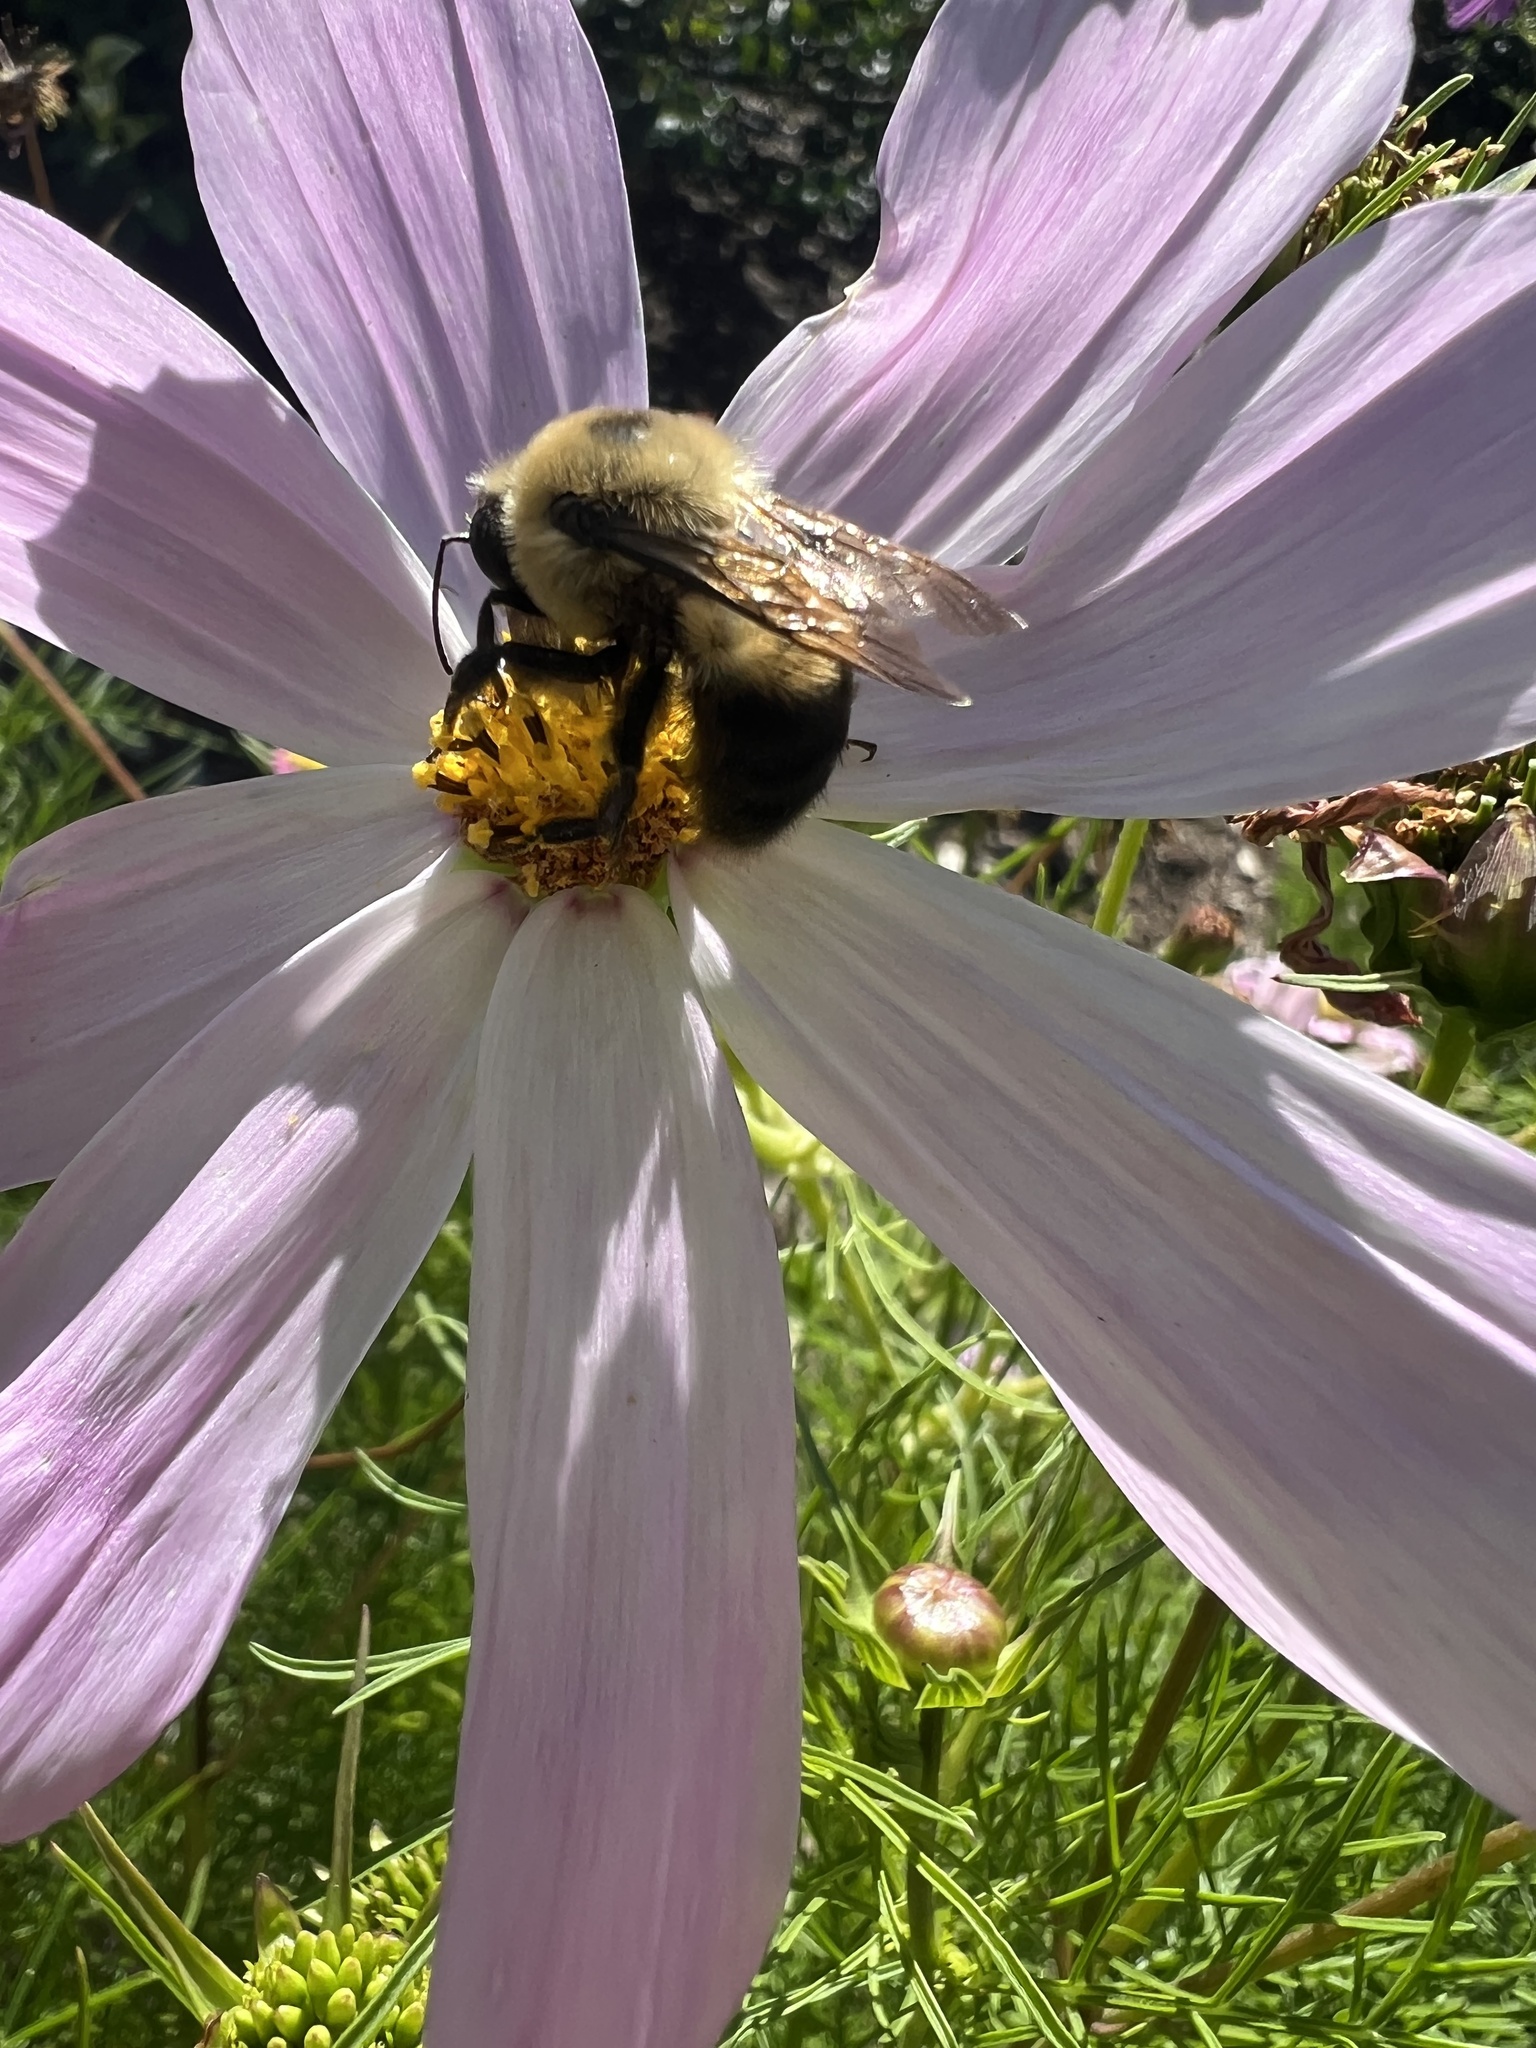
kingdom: Animalia
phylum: Arthropoda
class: Insecta
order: Hymenoptera
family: Apidae
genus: Bombus
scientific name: Bombus griseocollis
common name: Brown-belted bumble bee
